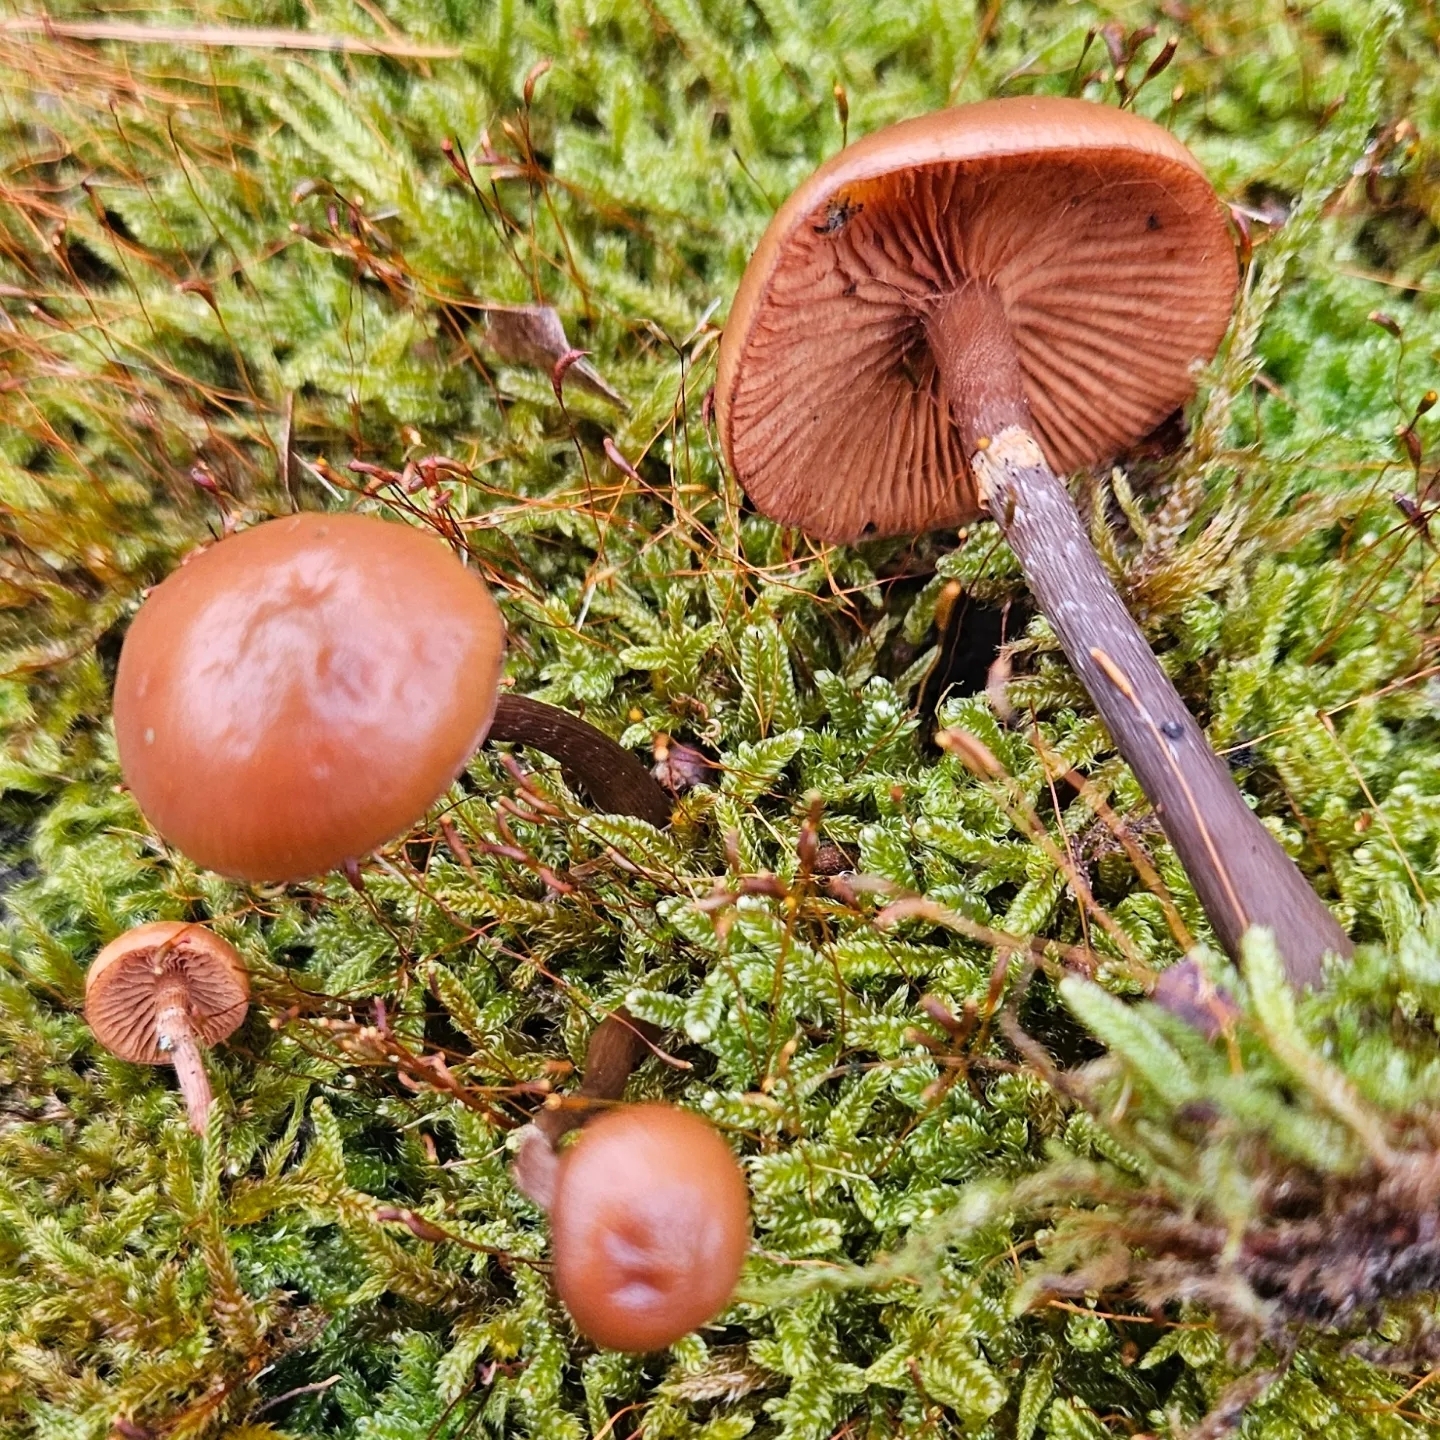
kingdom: Fungi
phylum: Basidiomycota
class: Agaricomycetes
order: Agaricales
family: Hymenogastraceae
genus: Galerina
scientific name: Galerina marginata
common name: Funeral bell
